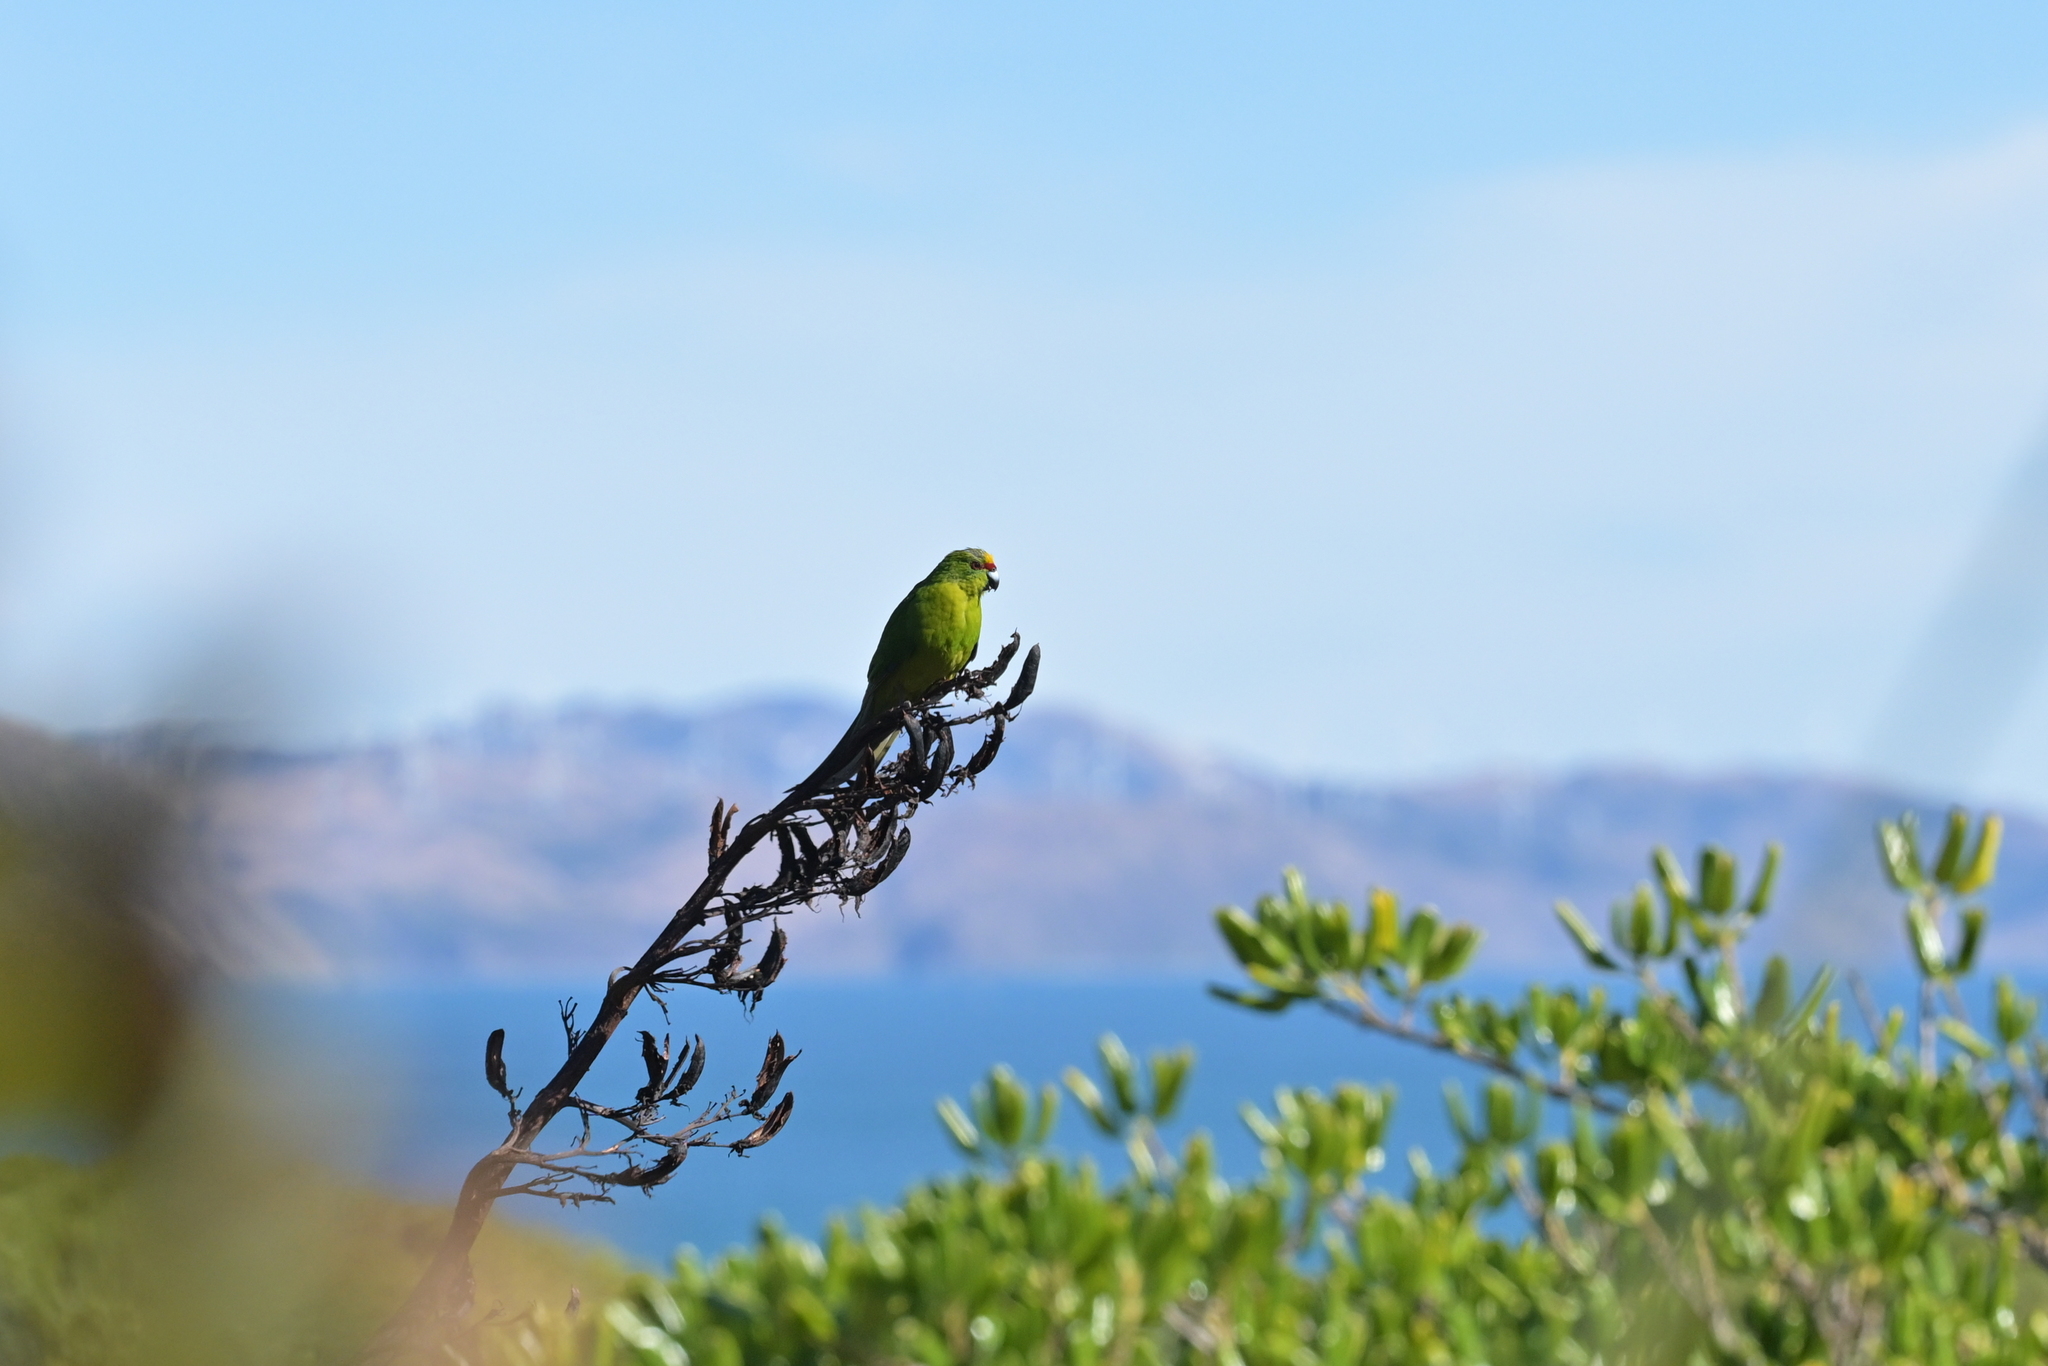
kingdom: Animalia
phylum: Chordata
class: Aves
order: Psittaciformes
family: Psittacidae
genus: Cyanoramphus
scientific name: Cyanoramphus auriceps
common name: Yellow-crowned parakeet
